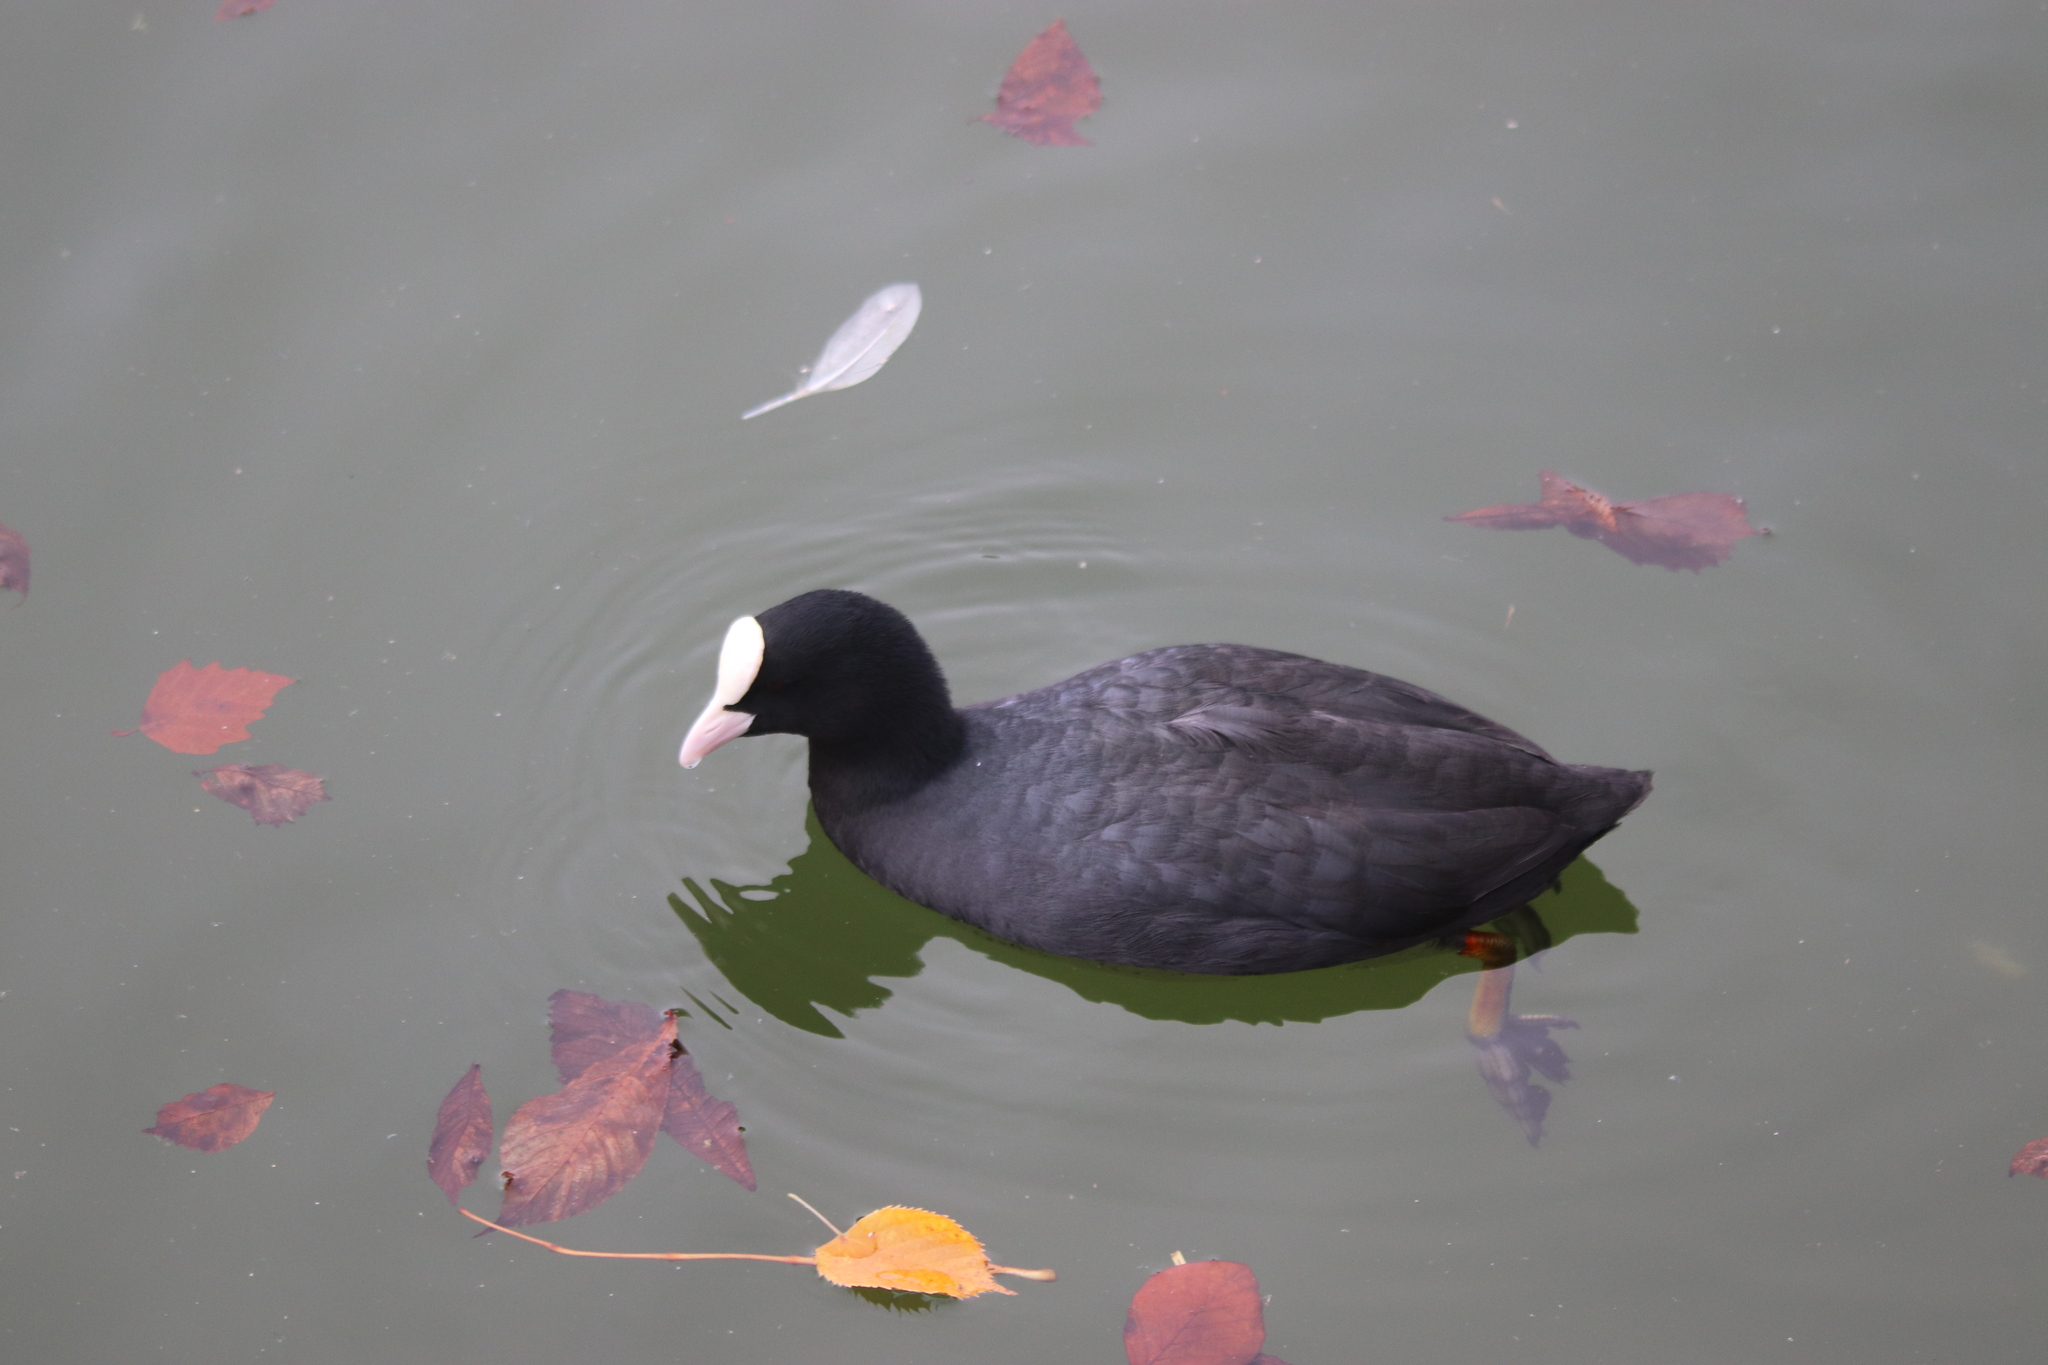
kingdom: Animalia
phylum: Chordata
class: Aves
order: Gruiformes
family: Rallidae
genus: Fulica
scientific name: Fulica atra
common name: Eurasian coot
